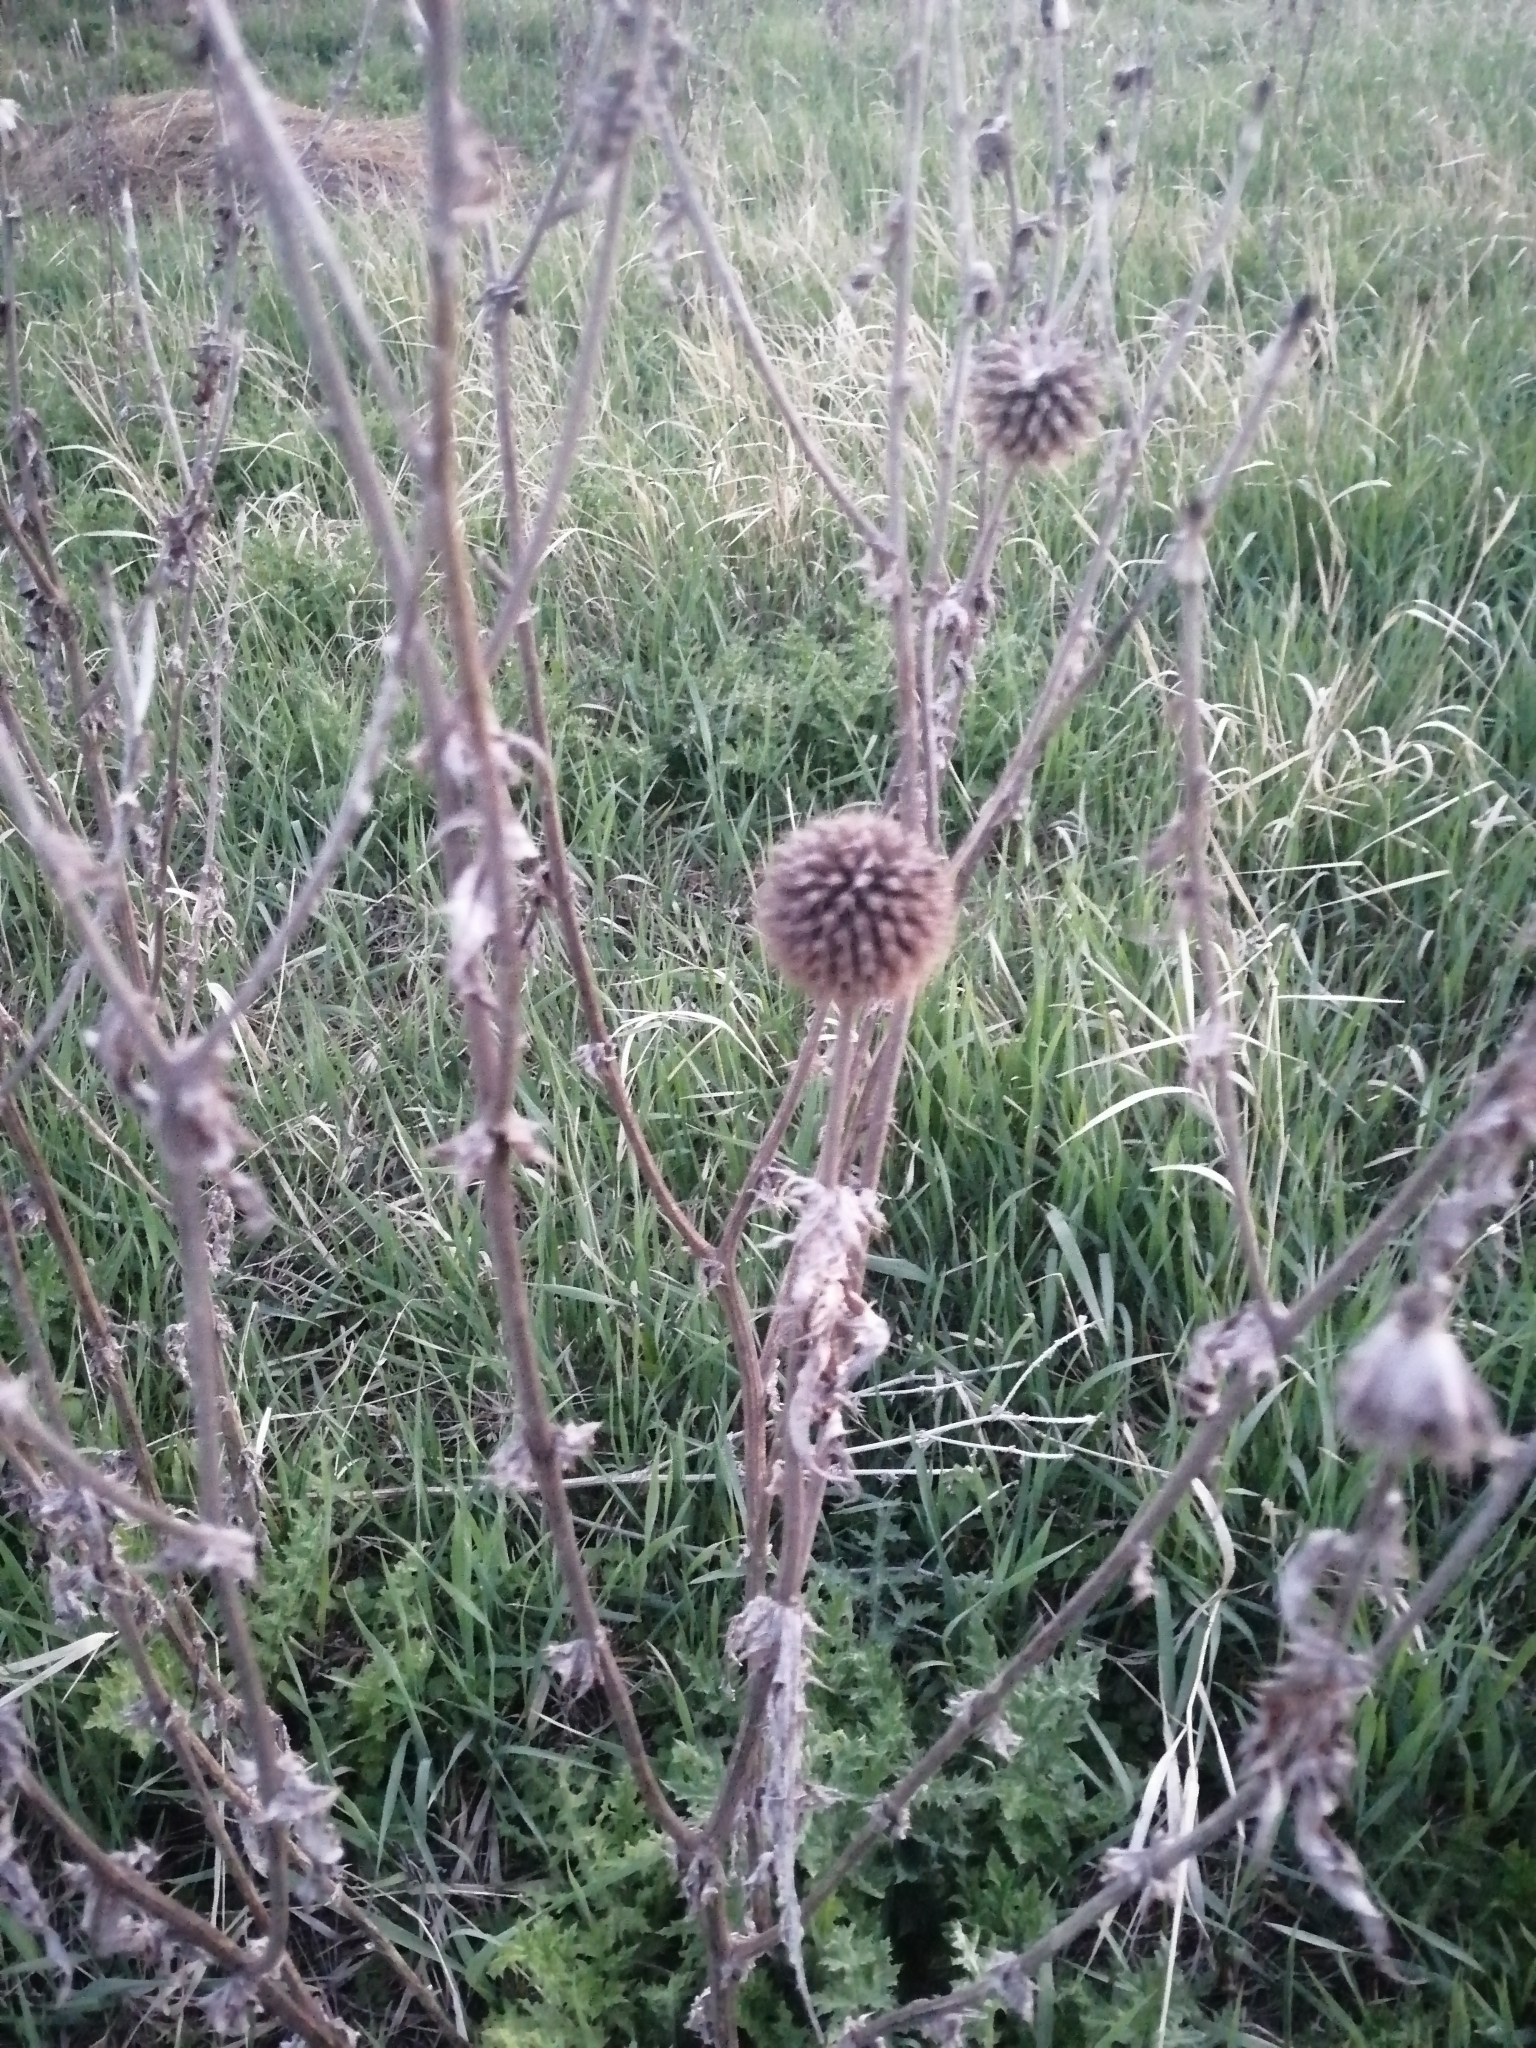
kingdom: Plantae
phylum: Tracheophyta
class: Magnoliopsida
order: Asterales
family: Asteraceae
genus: Echinops
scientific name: Echinops sphaerocephalus
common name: Glandular globe-thistle
